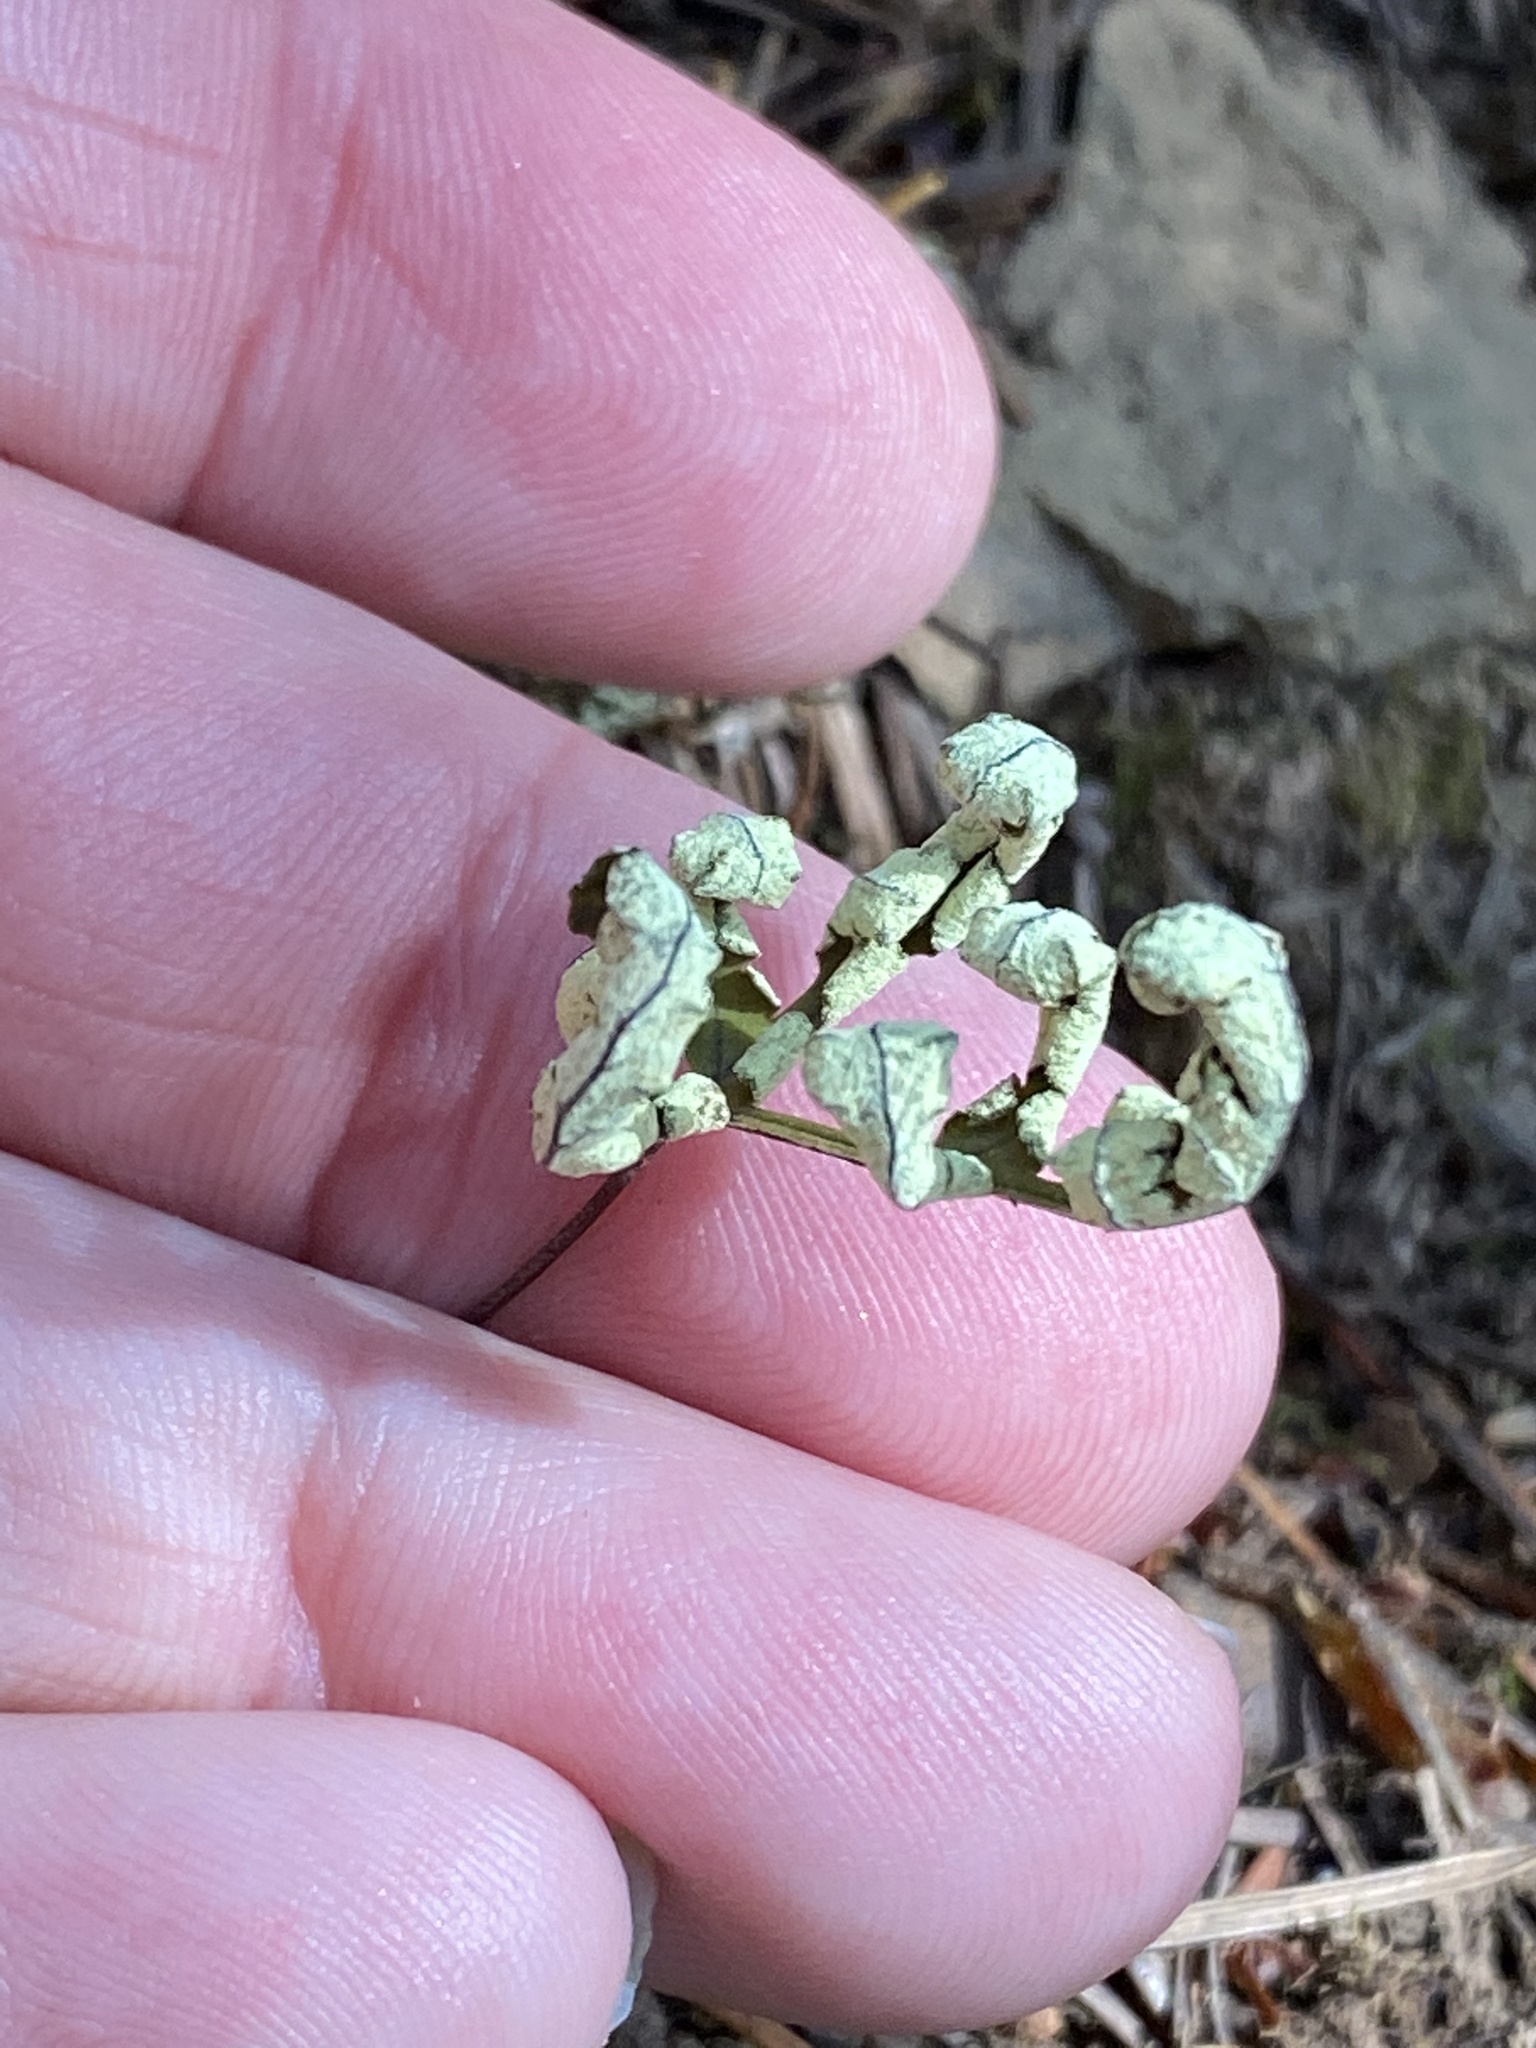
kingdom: Plantae
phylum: Tracheophyta
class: Polypodiopsida
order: Polypodiales
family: Pteridaceae
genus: Pentagramma
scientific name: Pentagramma triangularis
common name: Gold fern
